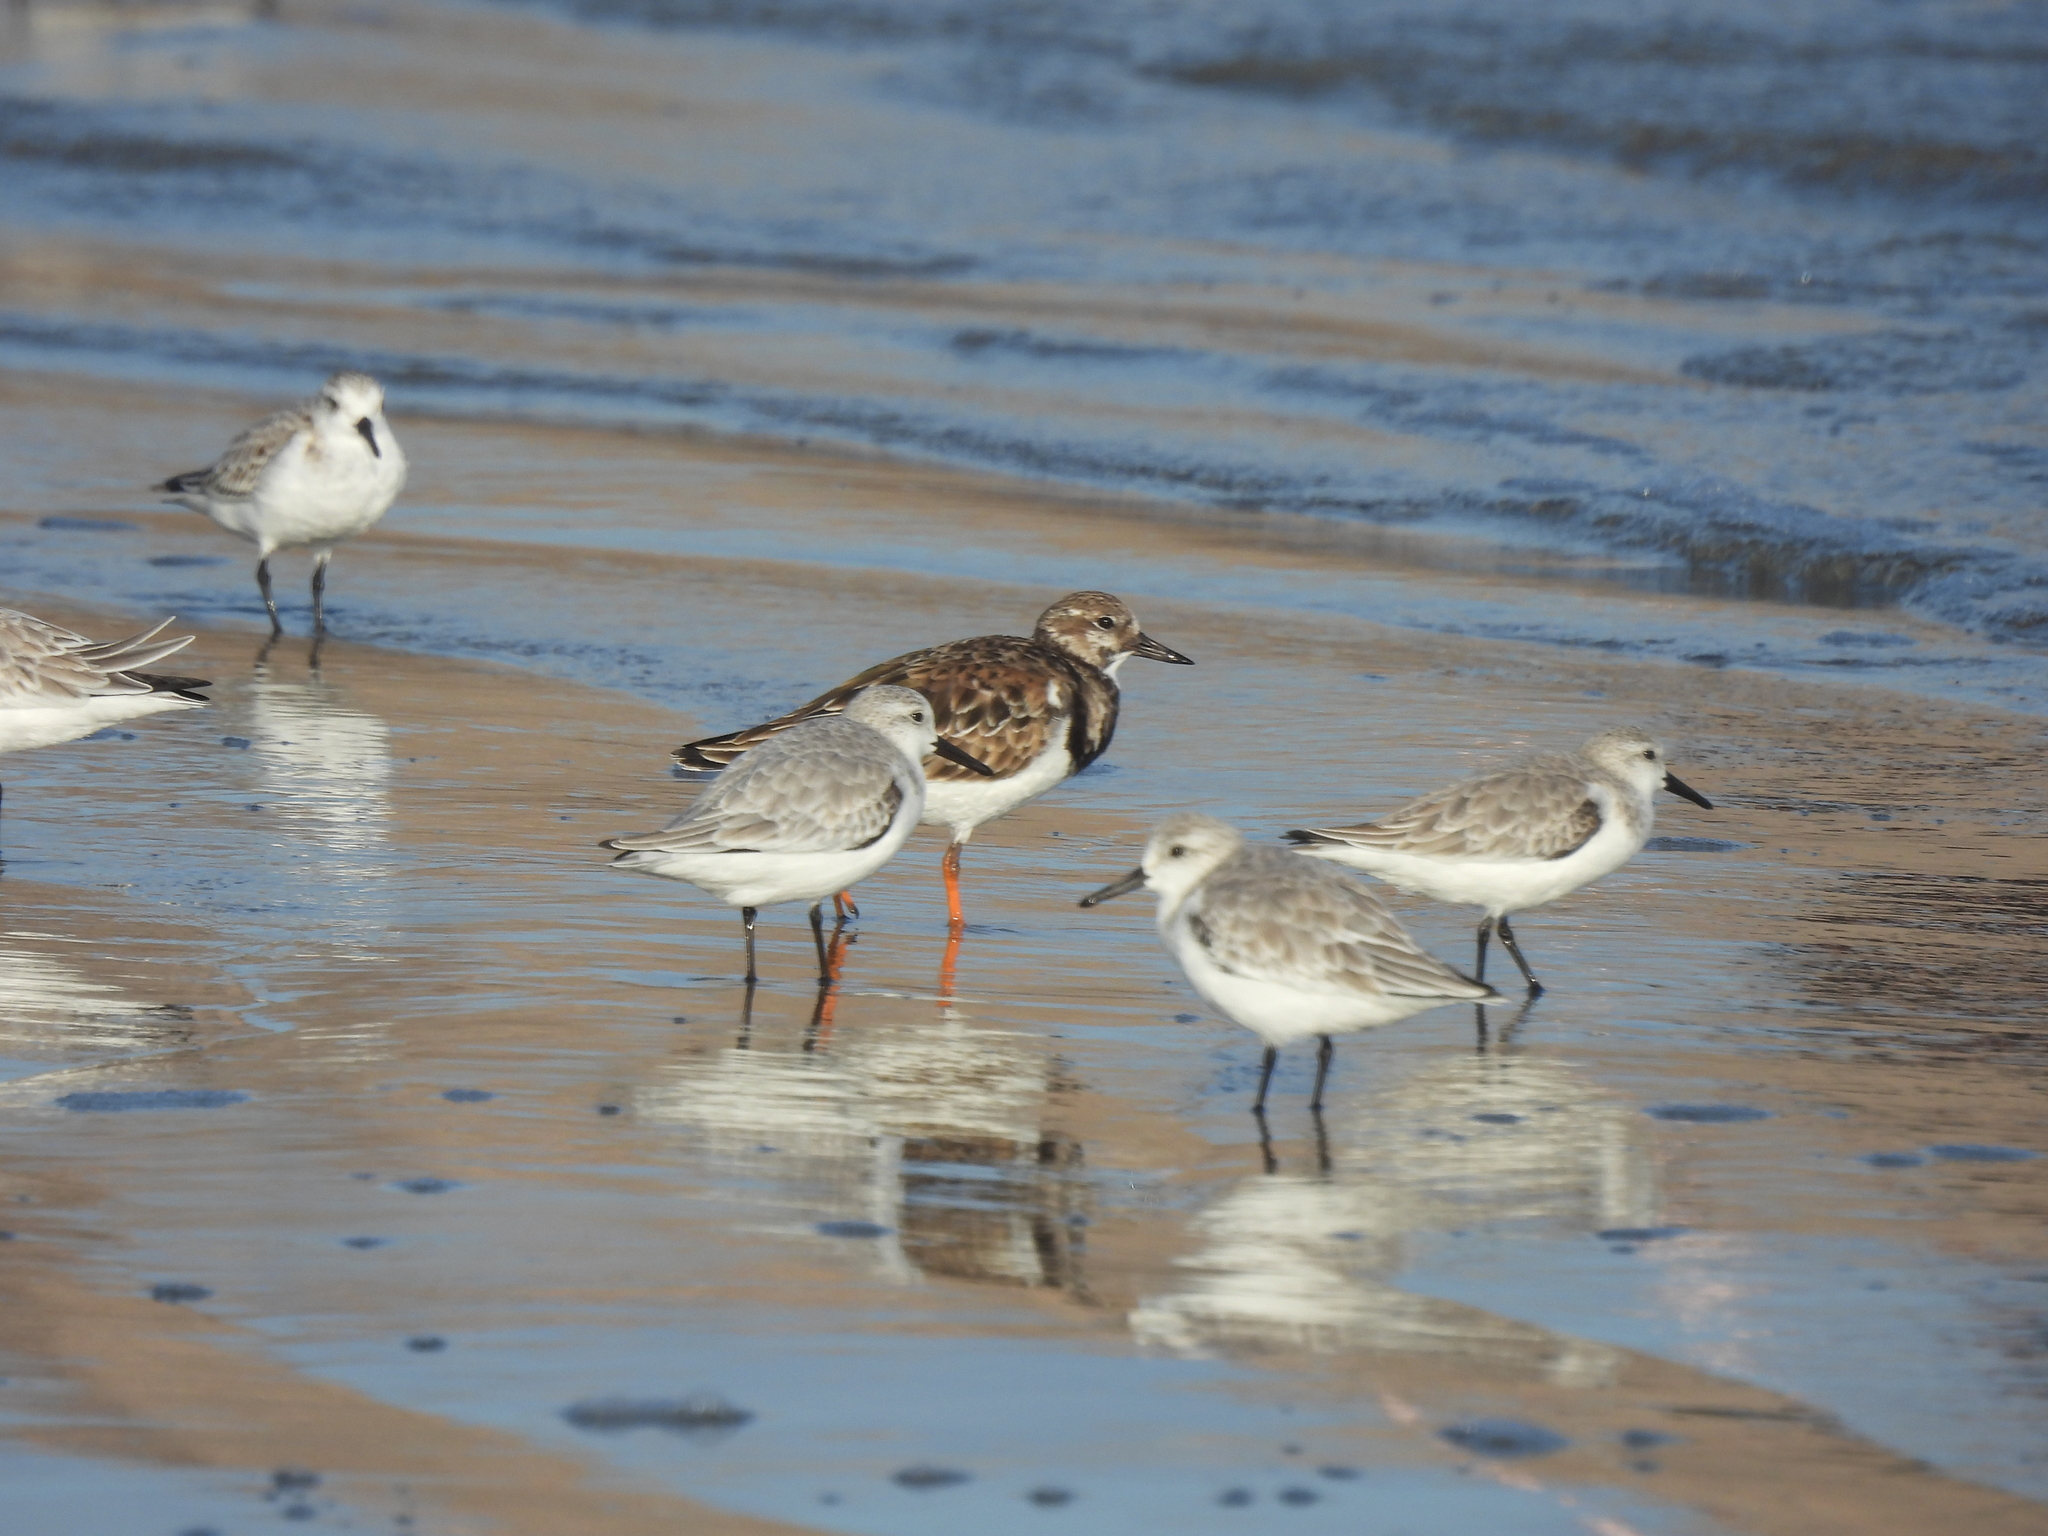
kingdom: Animalia
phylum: Chordata
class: Aves
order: Charadriiformes
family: Scolopacidae
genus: Arenaria
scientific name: Arenaria interpres
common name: Ruddy turnstone
